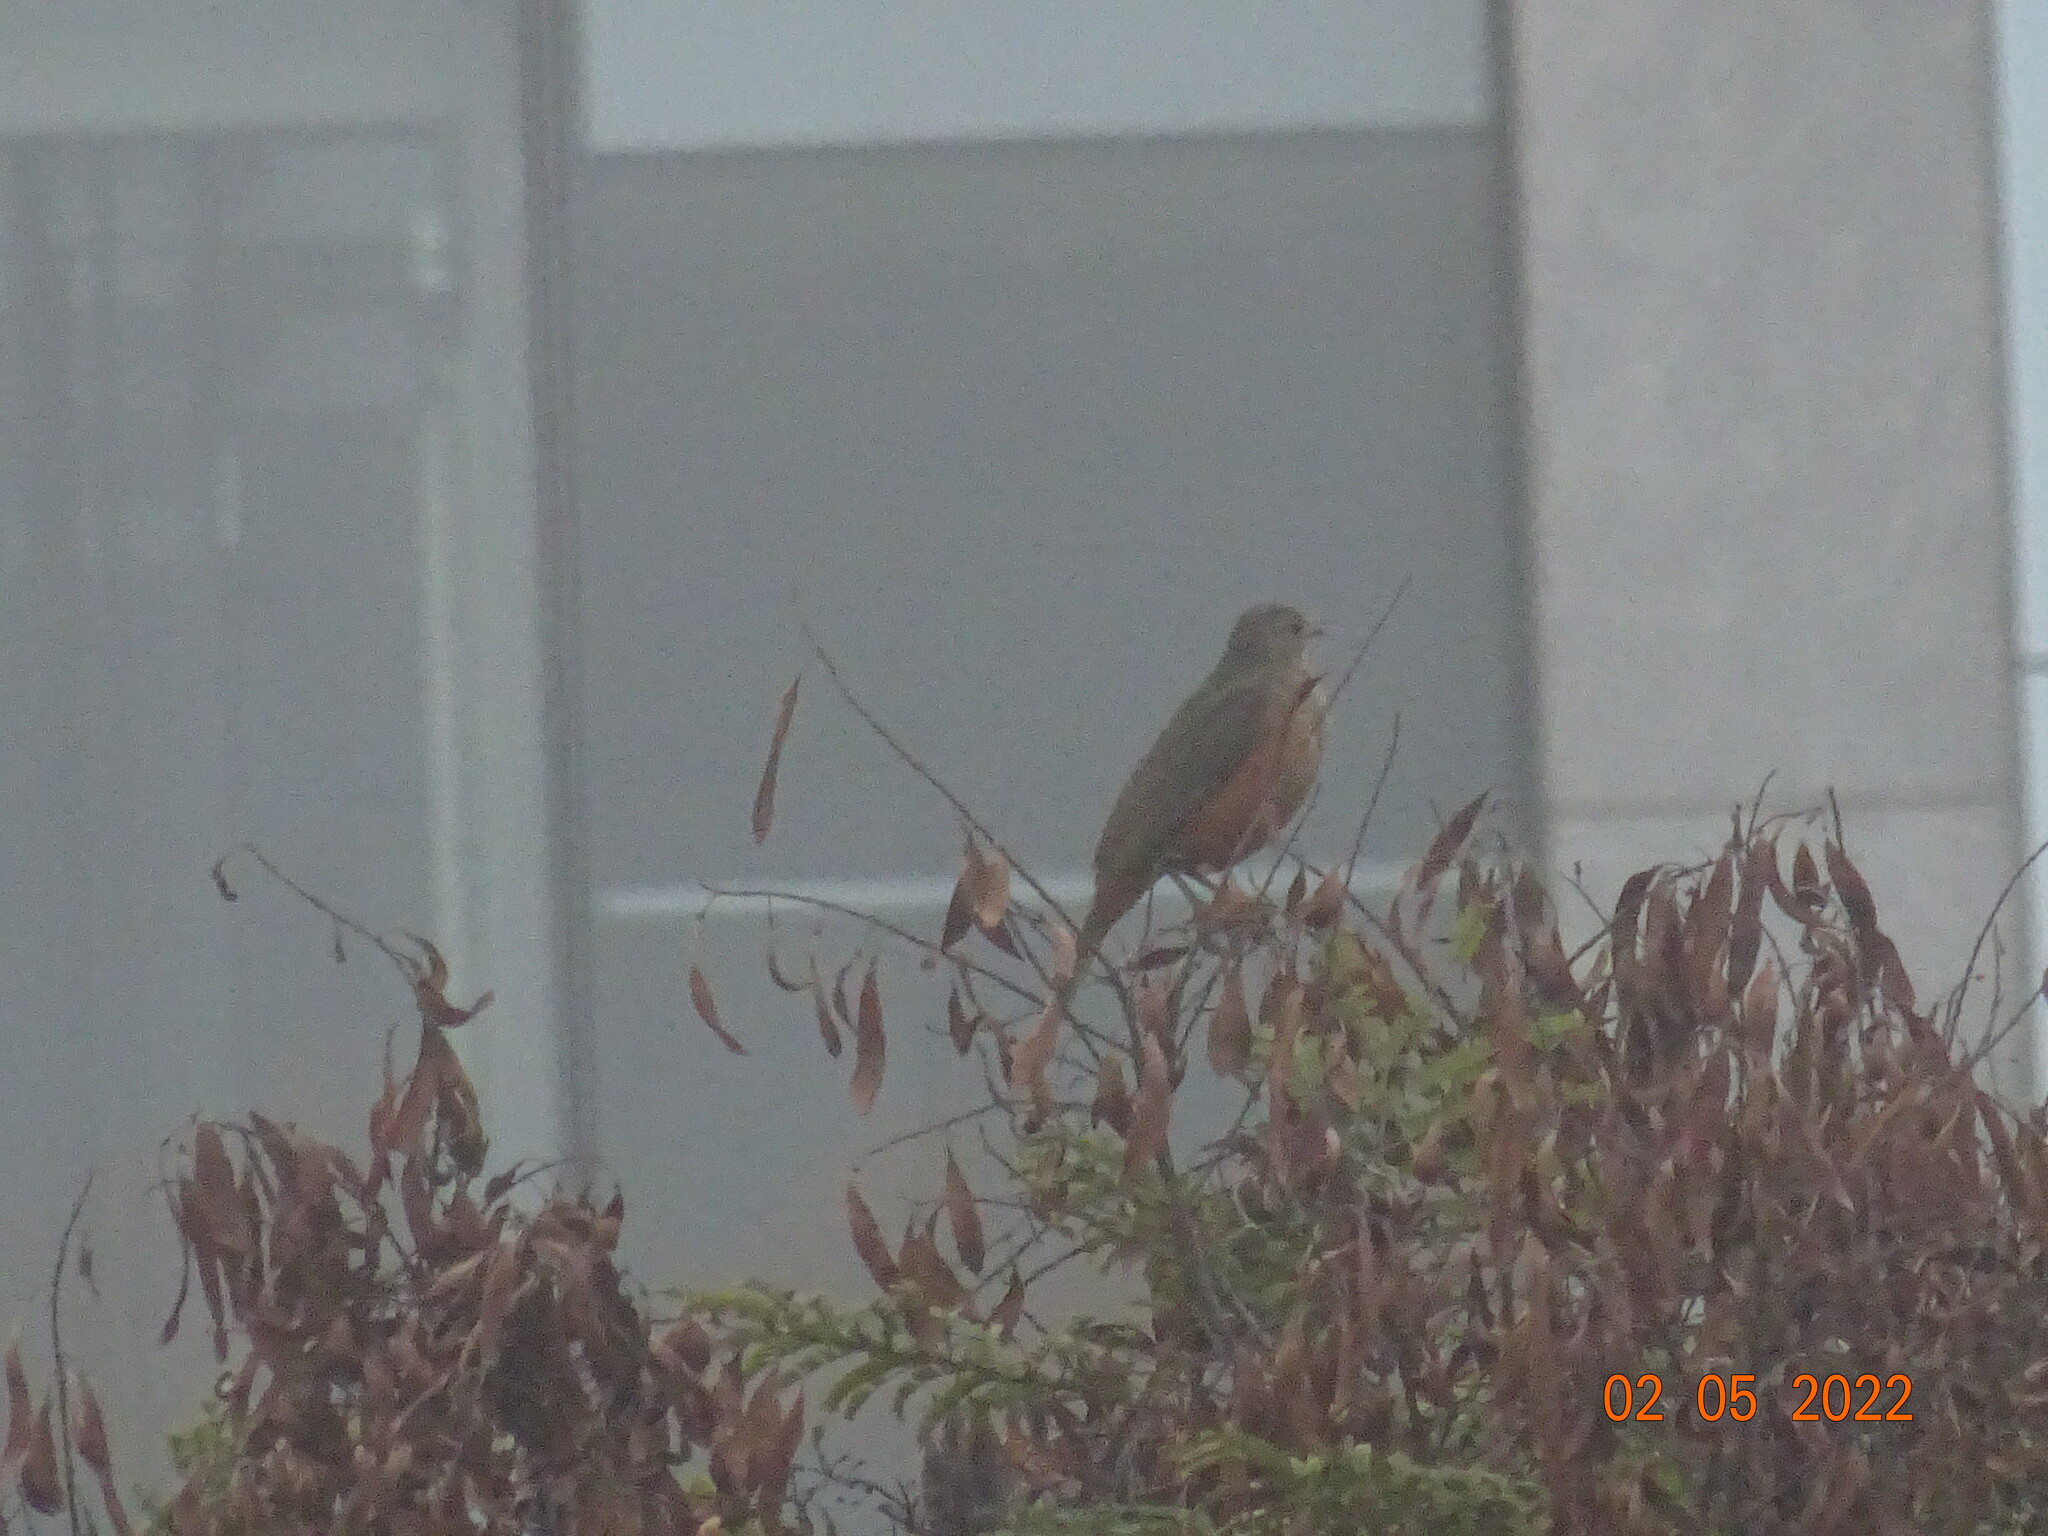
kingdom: Animalia
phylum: Chordata
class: Aves
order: Passeriformes
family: Turdidae
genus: Turdus
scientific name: Turdus rufiventris
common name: Rufous-bellied thrush
